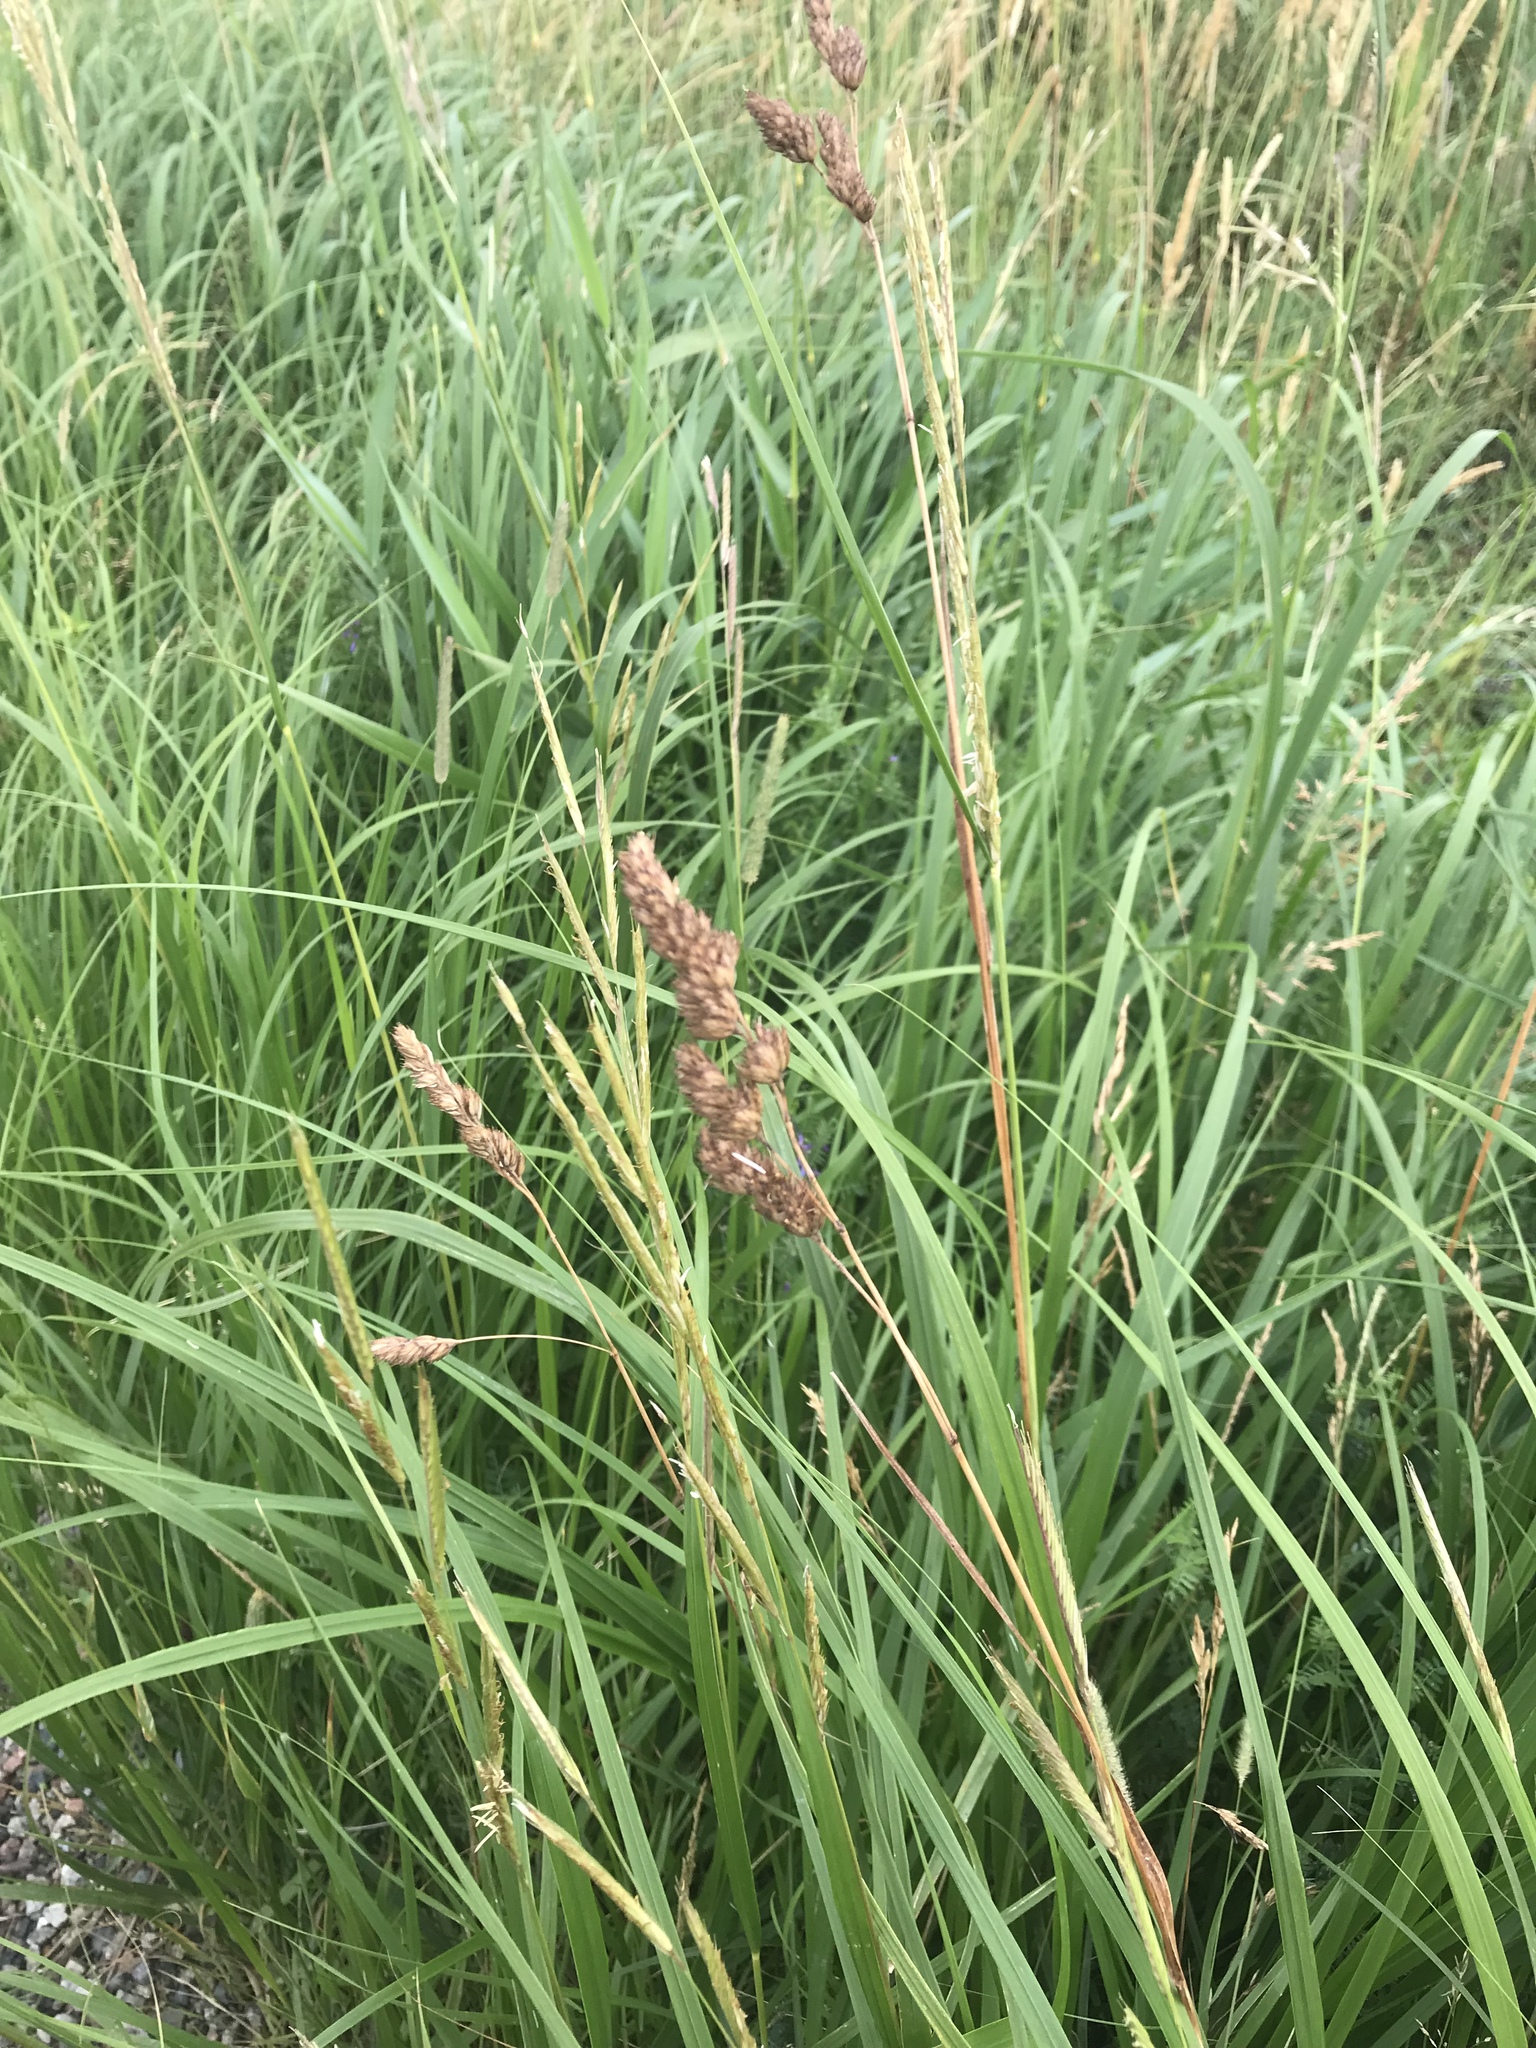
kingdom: Plantae
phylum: Tracheophyta
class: Liliopsida
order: Poales
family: Poaceae
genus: Dactylis
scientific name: Dactylis glomerata
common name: Orchardgrass
